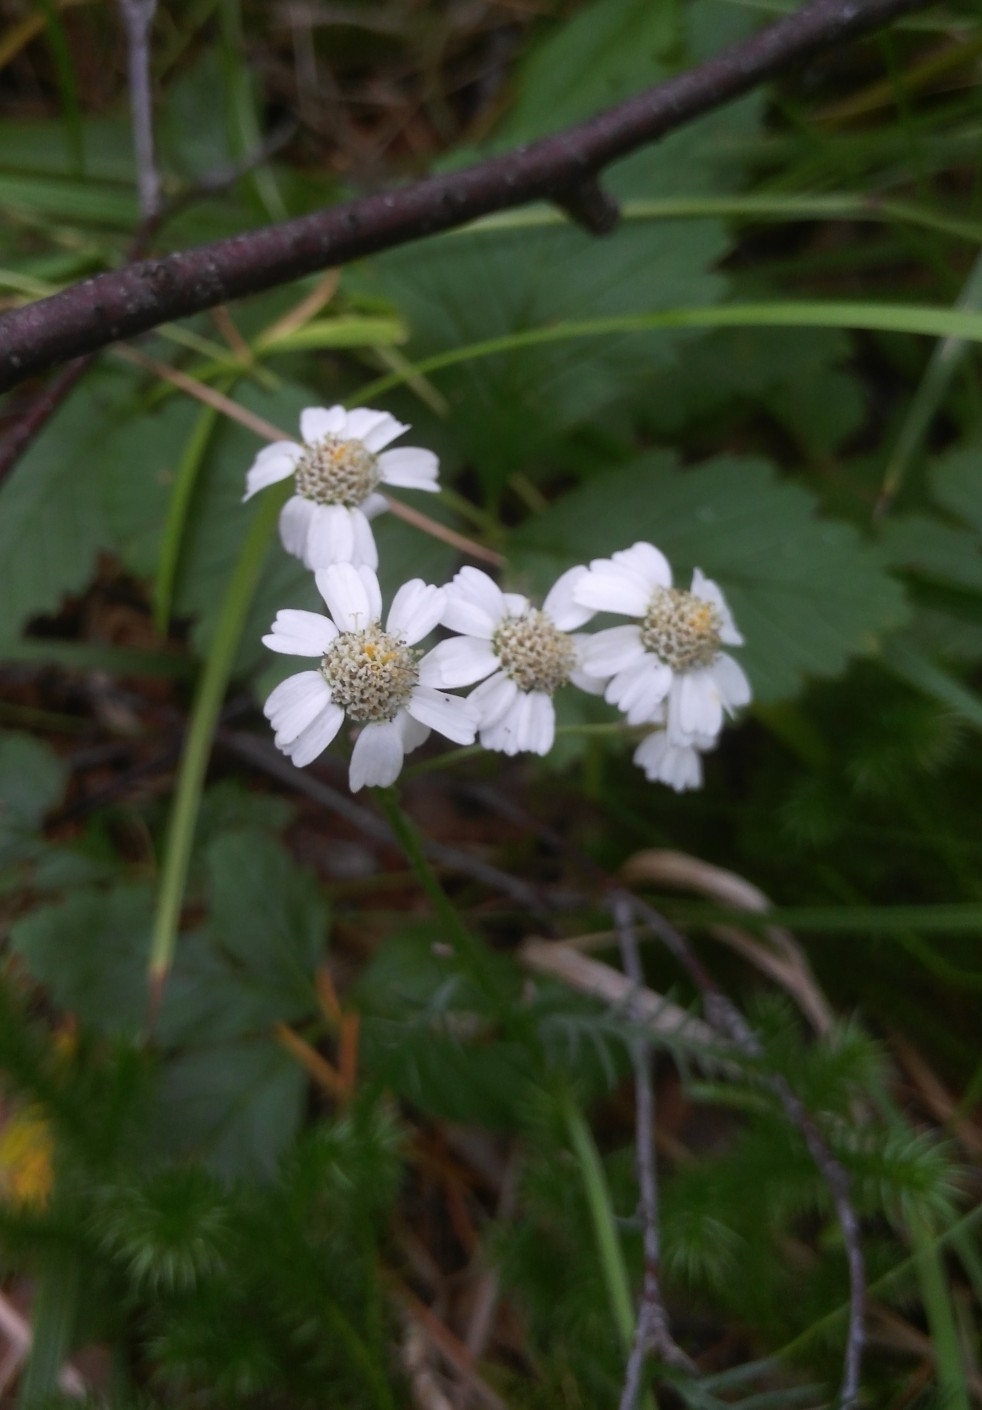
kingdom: Plantae
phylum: Tracheophyta
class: Magnoliopsida
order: Asterales
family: Asteraceae
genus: Achillea
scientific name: Achillea impatiens
